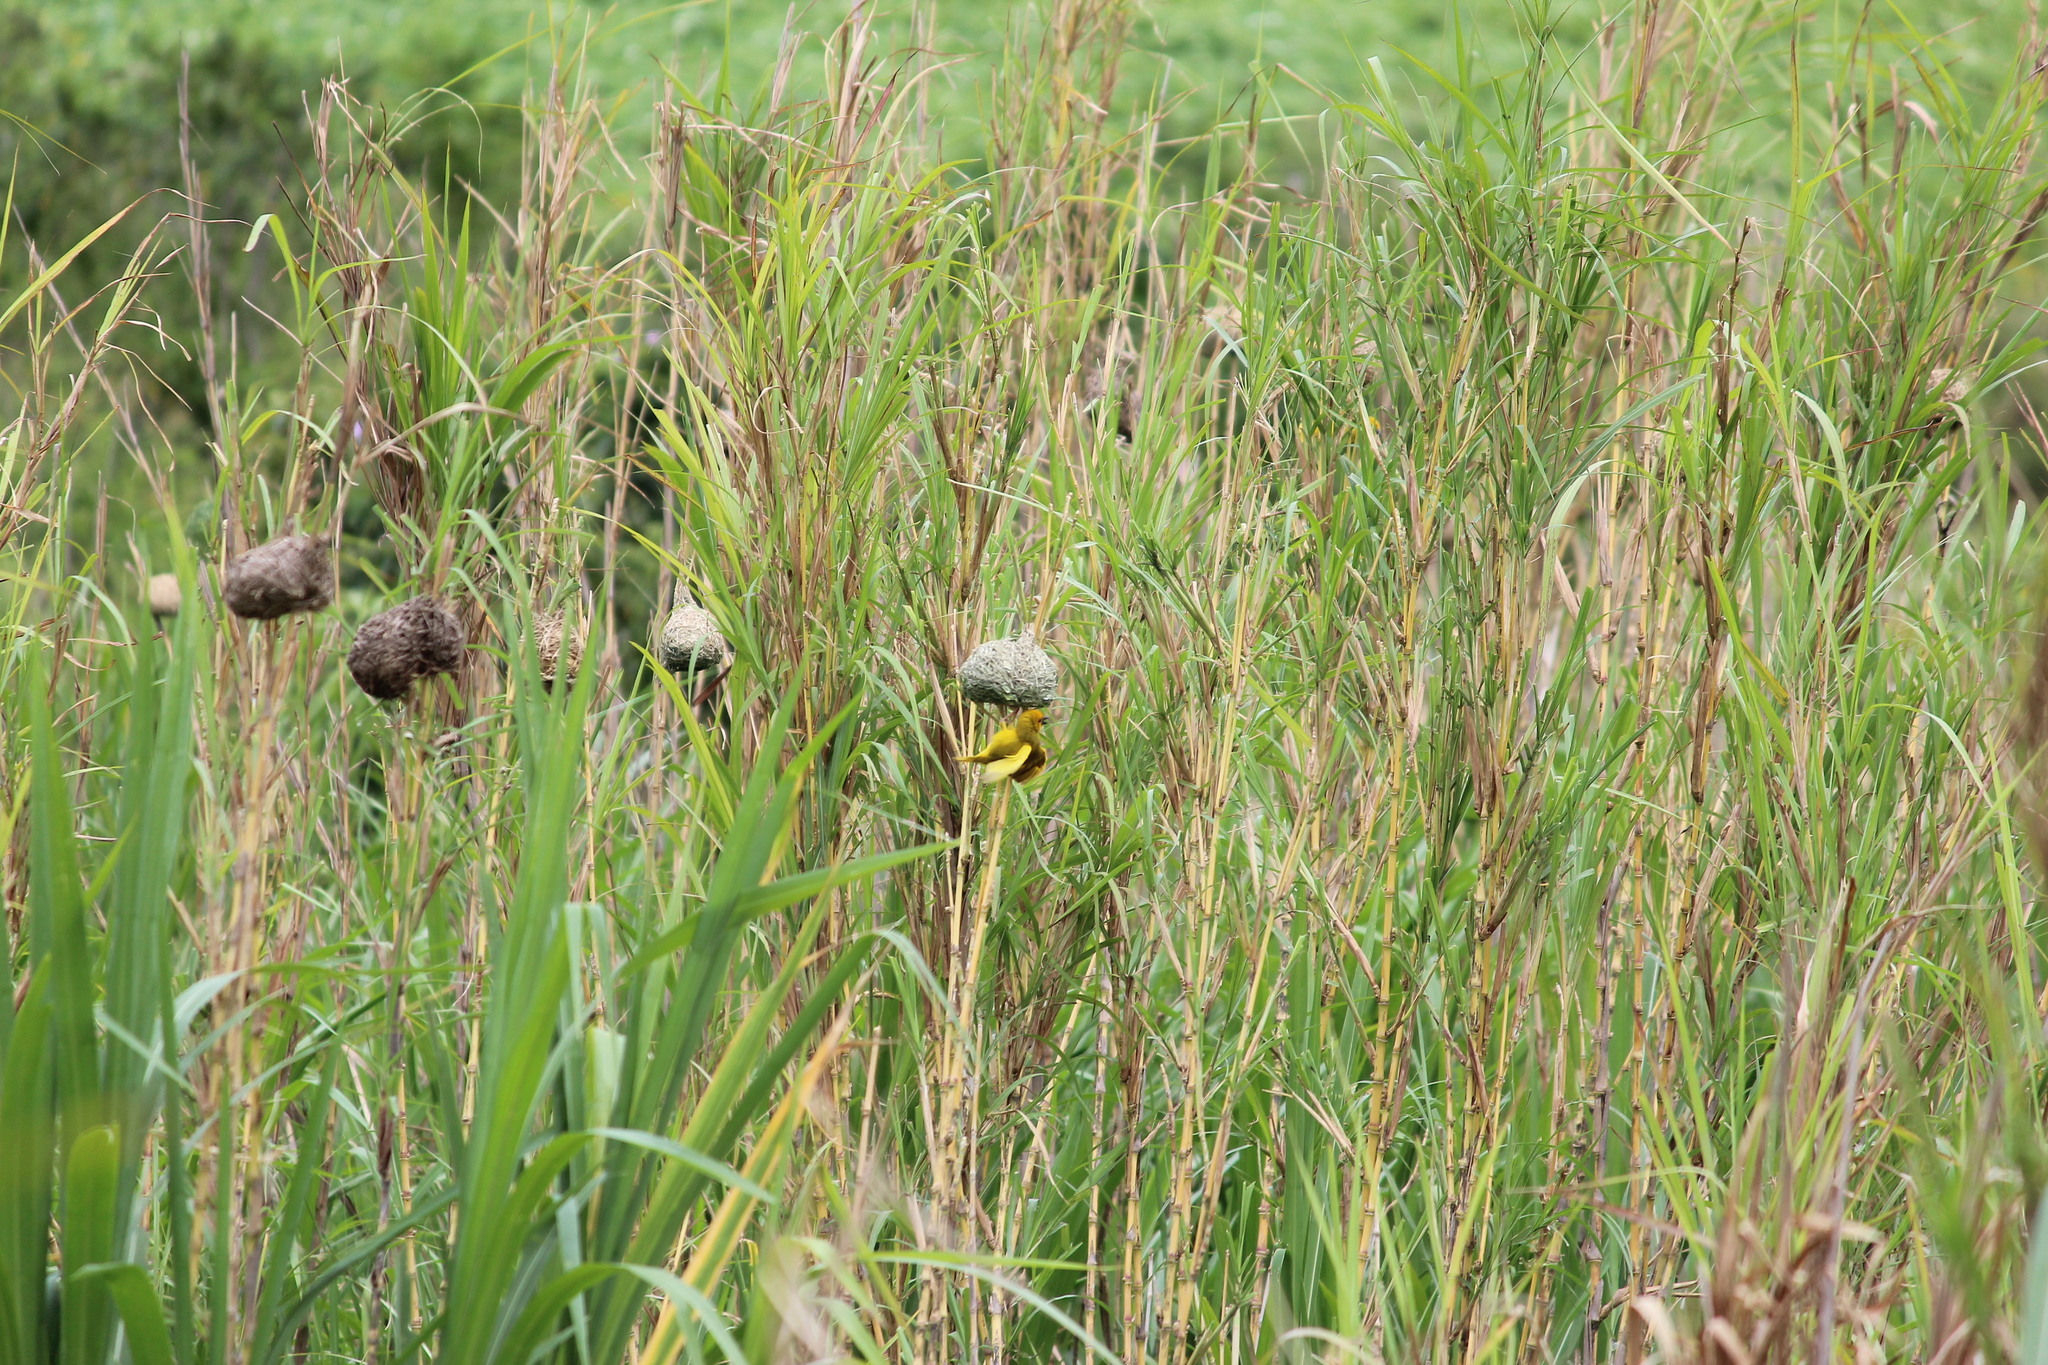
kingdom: Animalia
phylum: Chordata
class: Aves
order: Passeriformes
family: Ploceidae
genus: Ploceus
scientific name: Ploceus subaureus
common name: Yellow weaver
